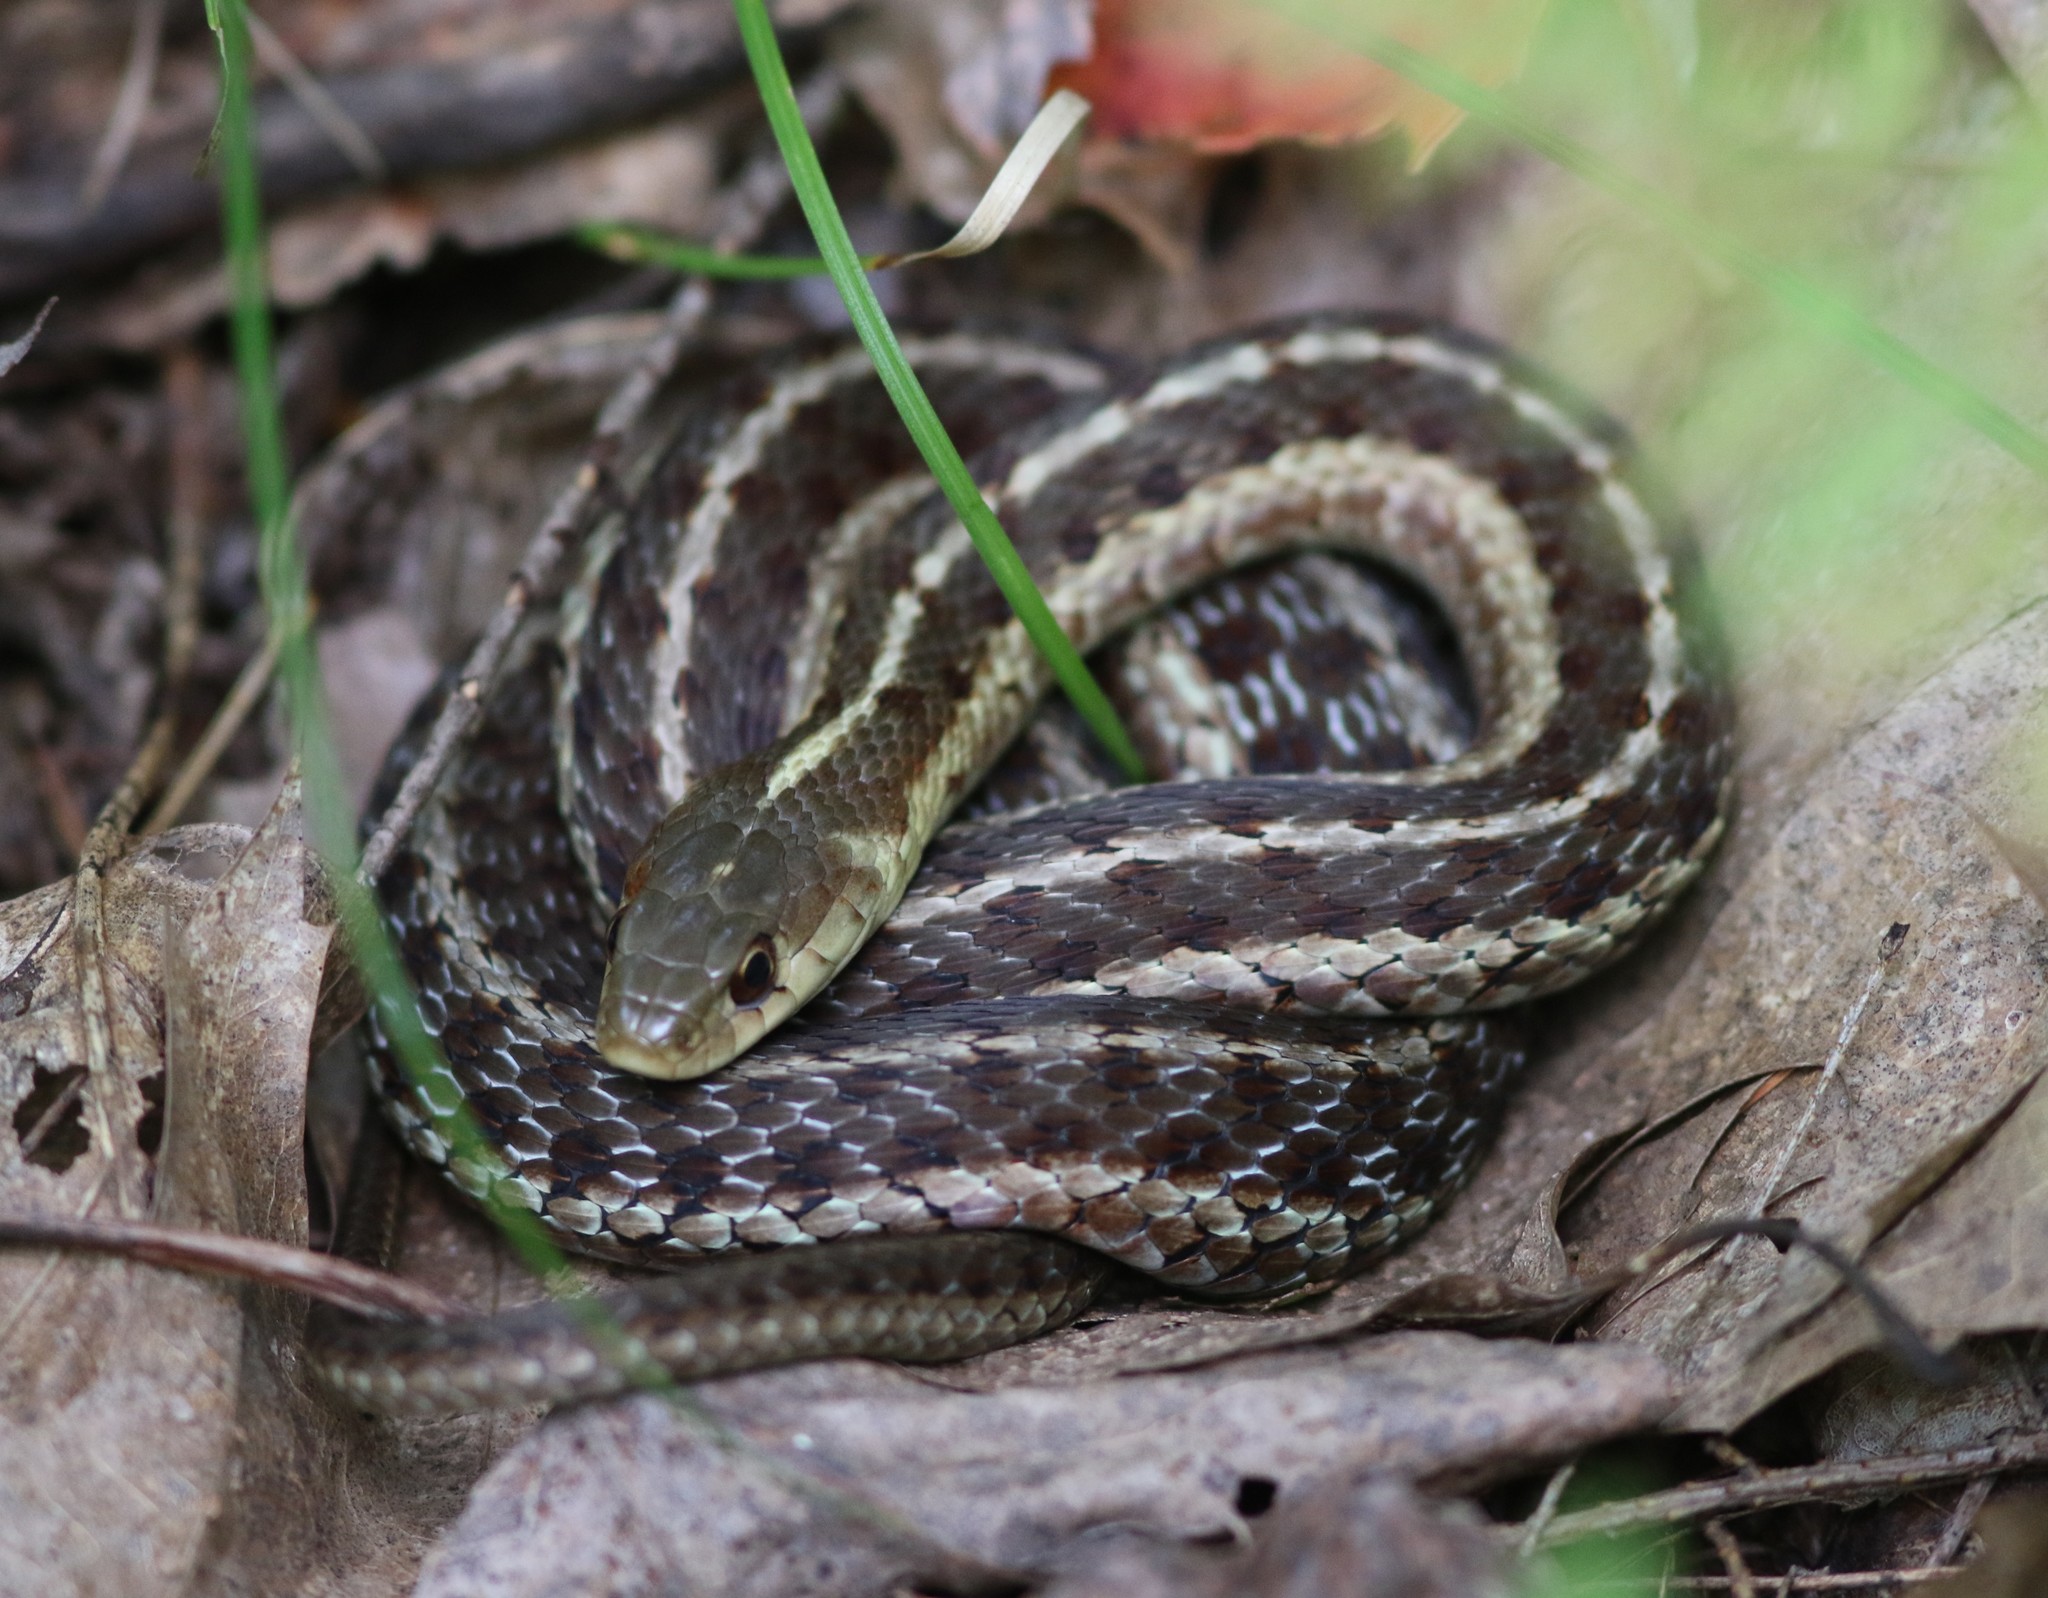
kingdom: Animalia
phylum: Chordata
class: Squamata
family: Colubridae
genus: Thamnophis
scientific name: Thamnophis sirtalis
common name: Common garter snake
